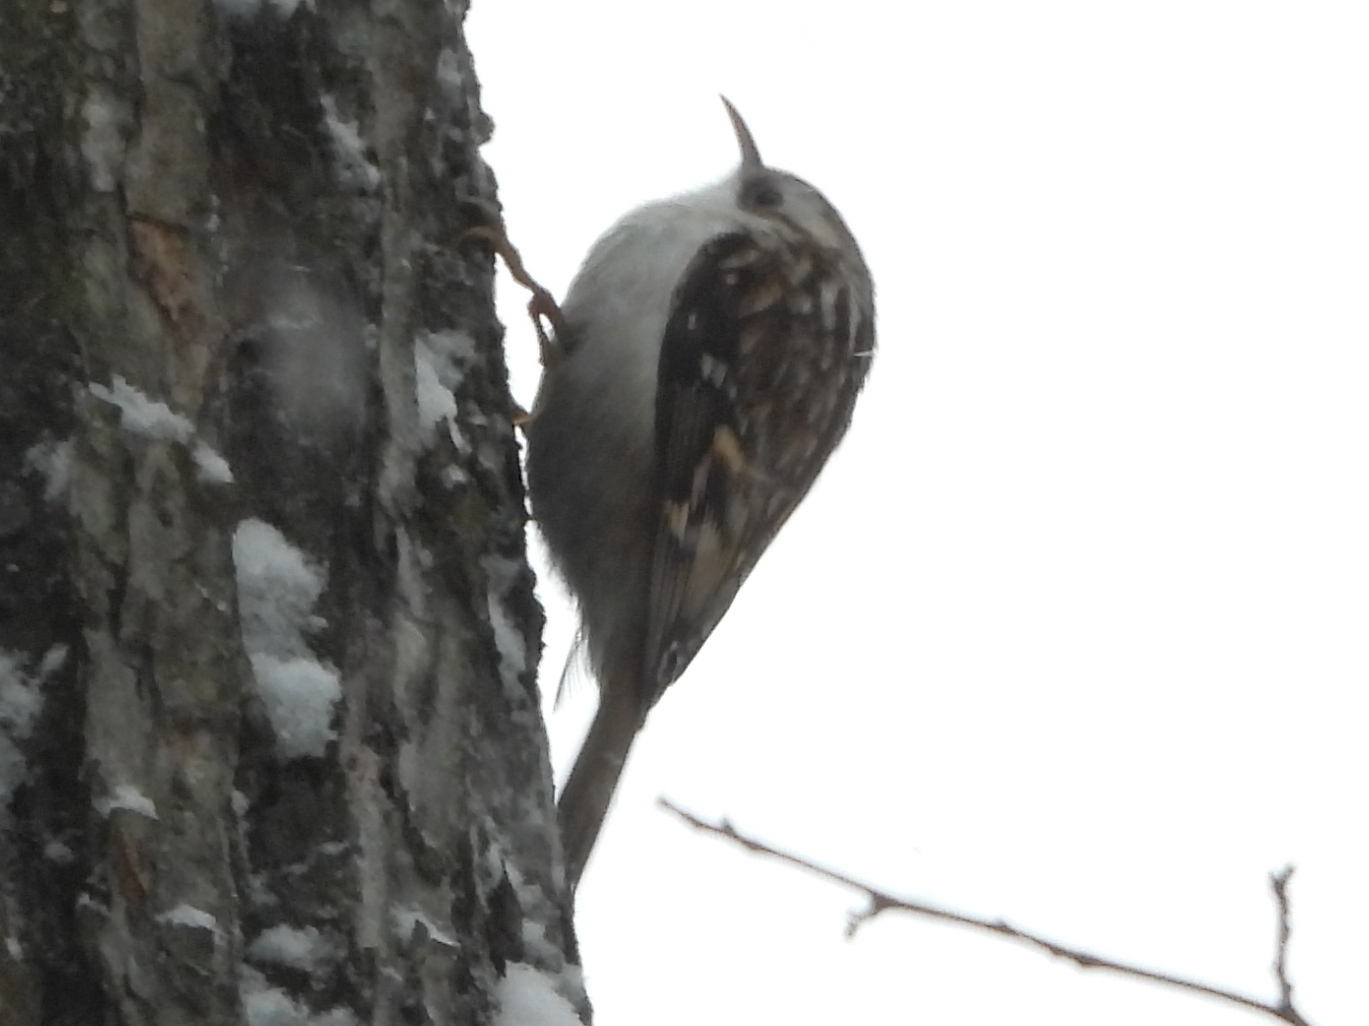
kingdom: Animalia
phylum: Chordata
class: Aves
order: Passeriformes
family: Certhiidae
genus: Certhia
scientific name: Certhia familiaris
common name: Eurasian treecreeper
